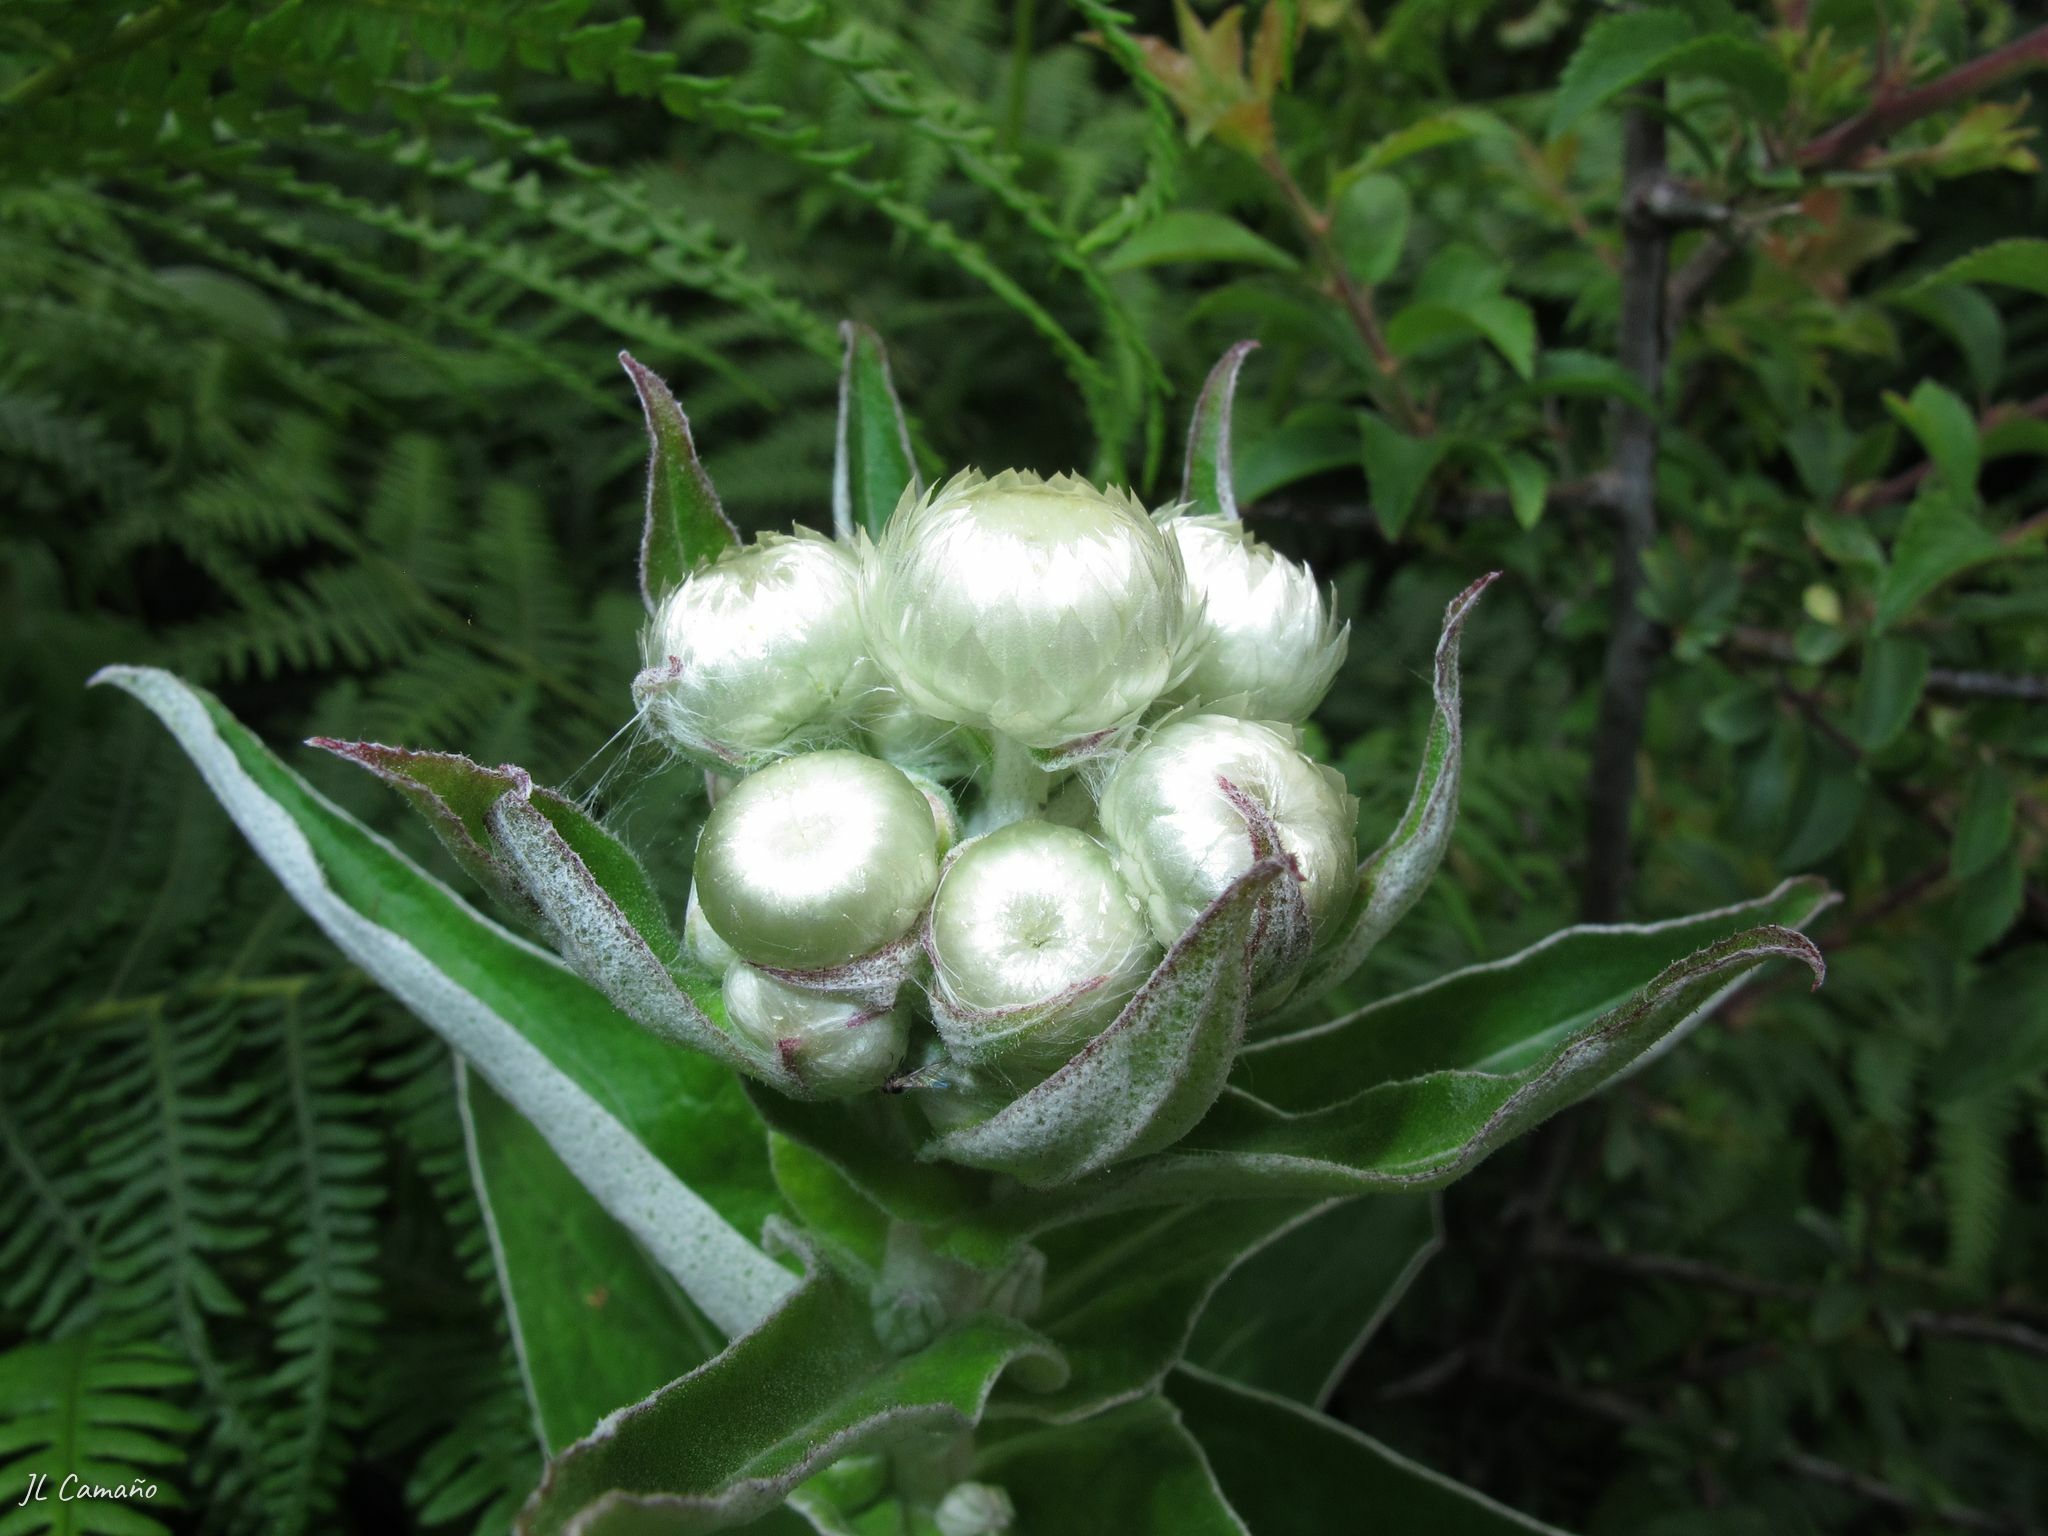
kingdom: Plantae
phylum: Tracheophyta
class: Magnoliopsida
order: Asterales
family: Asteraceae
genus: Helichrysum
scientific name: Helichrysum foetidum
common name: Stinking everlasting
